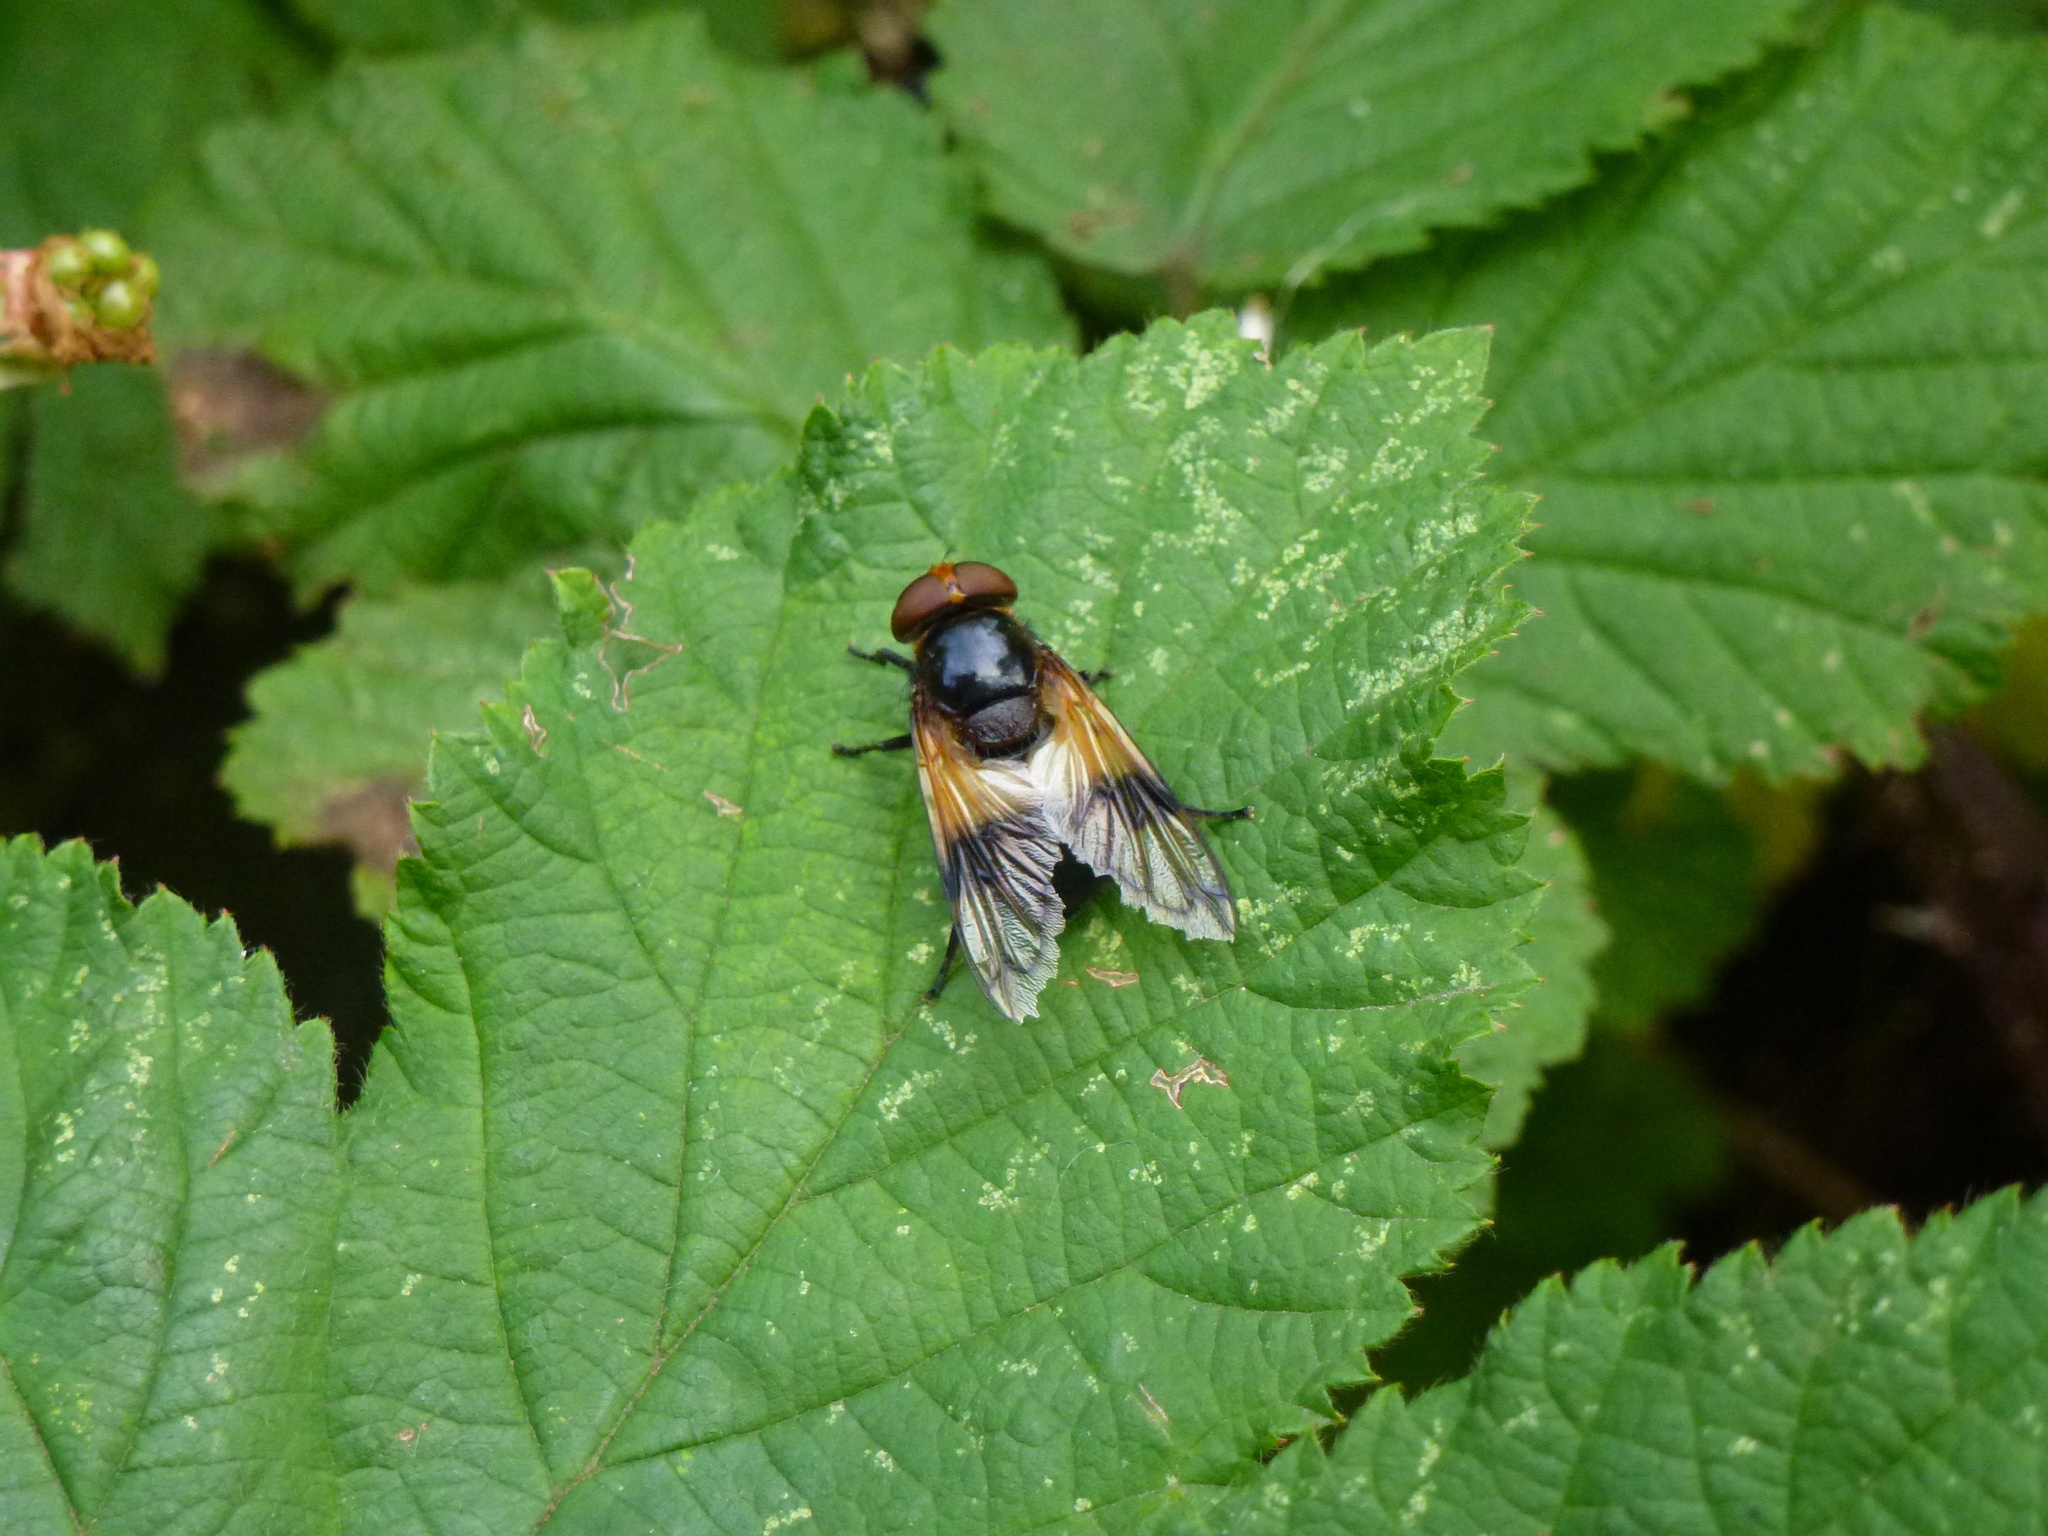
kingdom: Animalia
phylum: Arthropoda
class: Insecta
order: Diptera
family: Syrphidae
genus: Volucella
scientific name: Volucella pellucens
